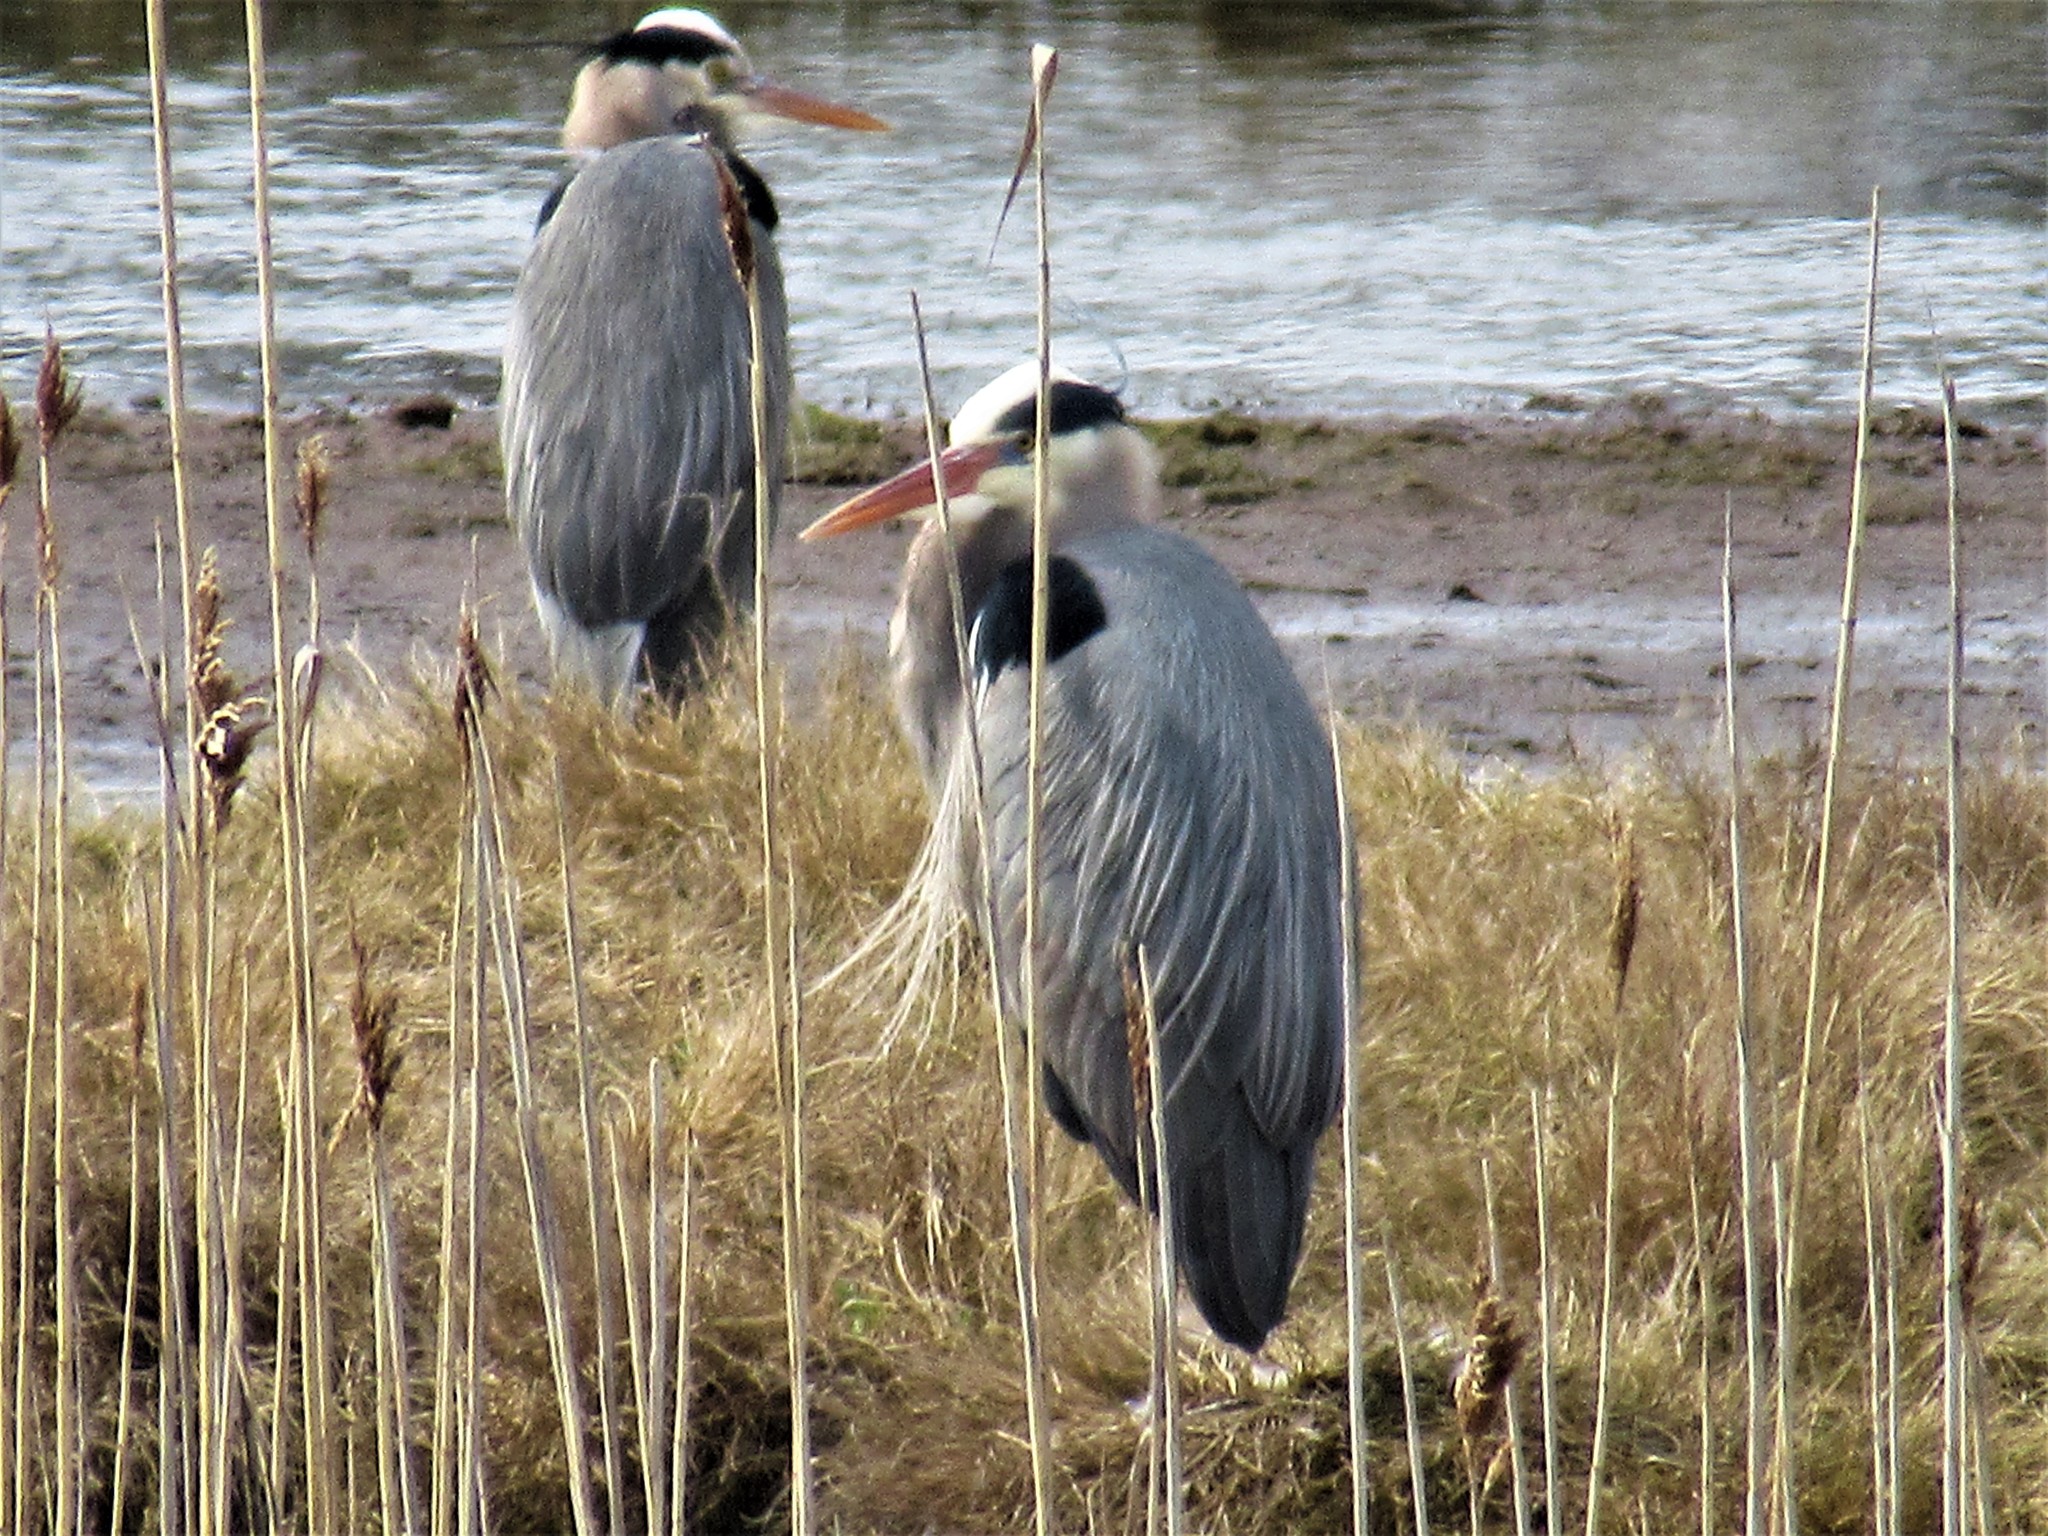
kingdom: Animalia
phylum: Chordata
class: Aves
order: Pelecaniformes
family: Ardeidae
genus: Ardea
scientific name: Ardea herodias
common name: Great blue heron
